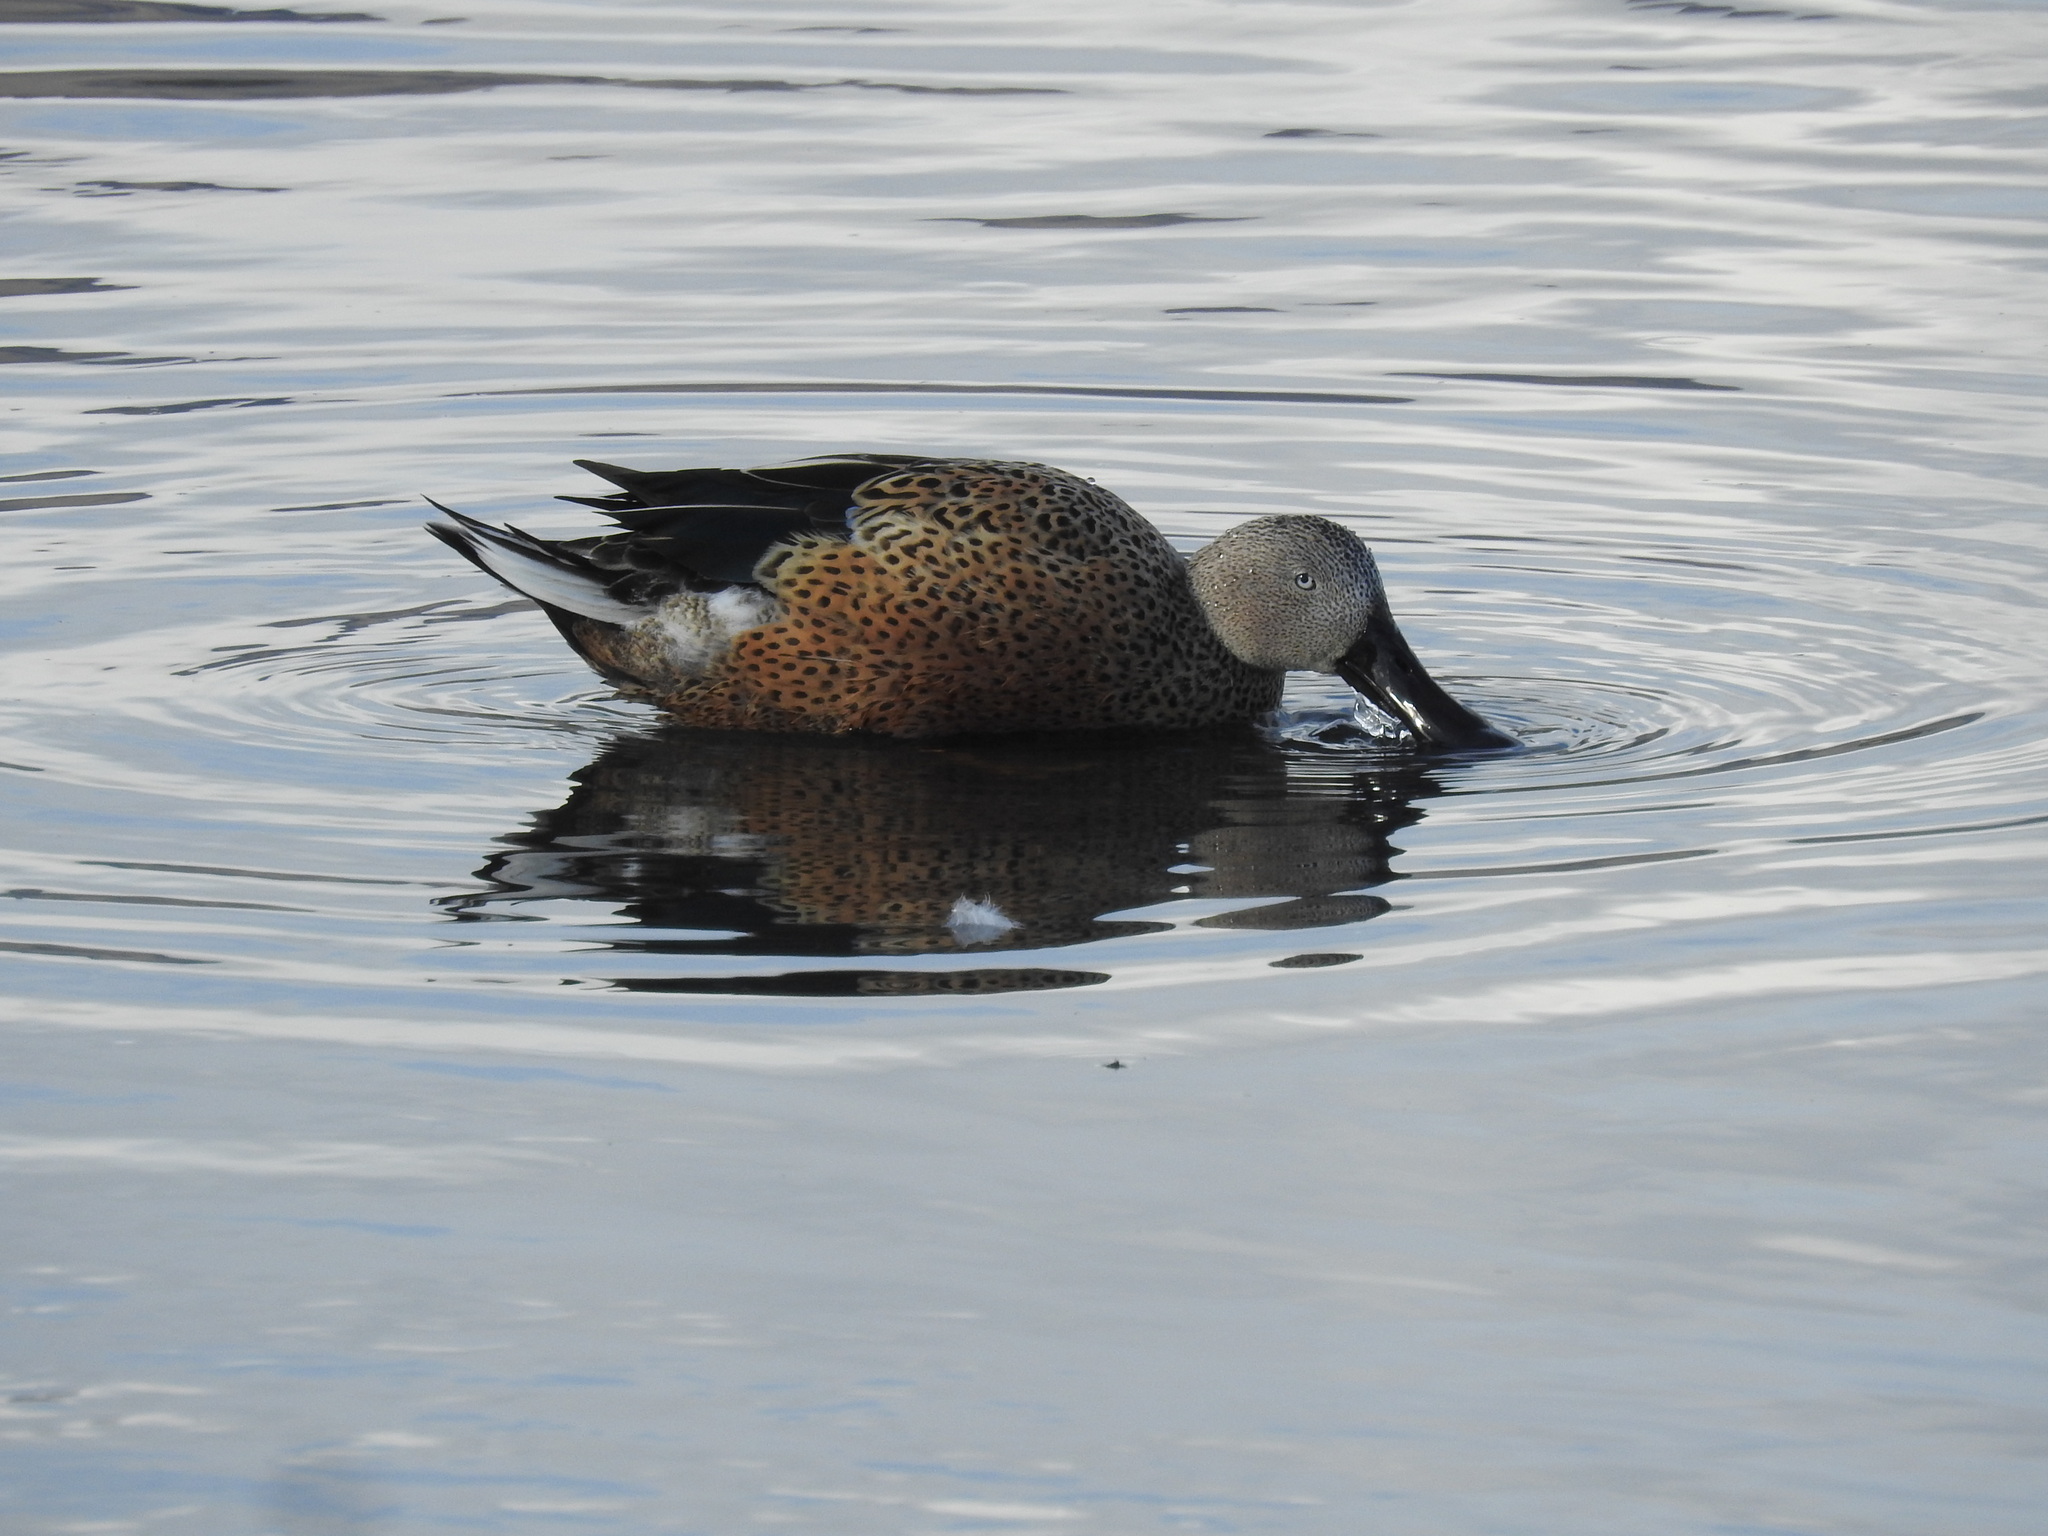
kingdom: Animalia
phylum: Chordata
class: Aves
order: Anseriformes
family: Anatidae
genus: Spatula
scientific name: Spatula platalea
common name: Red shoveler
